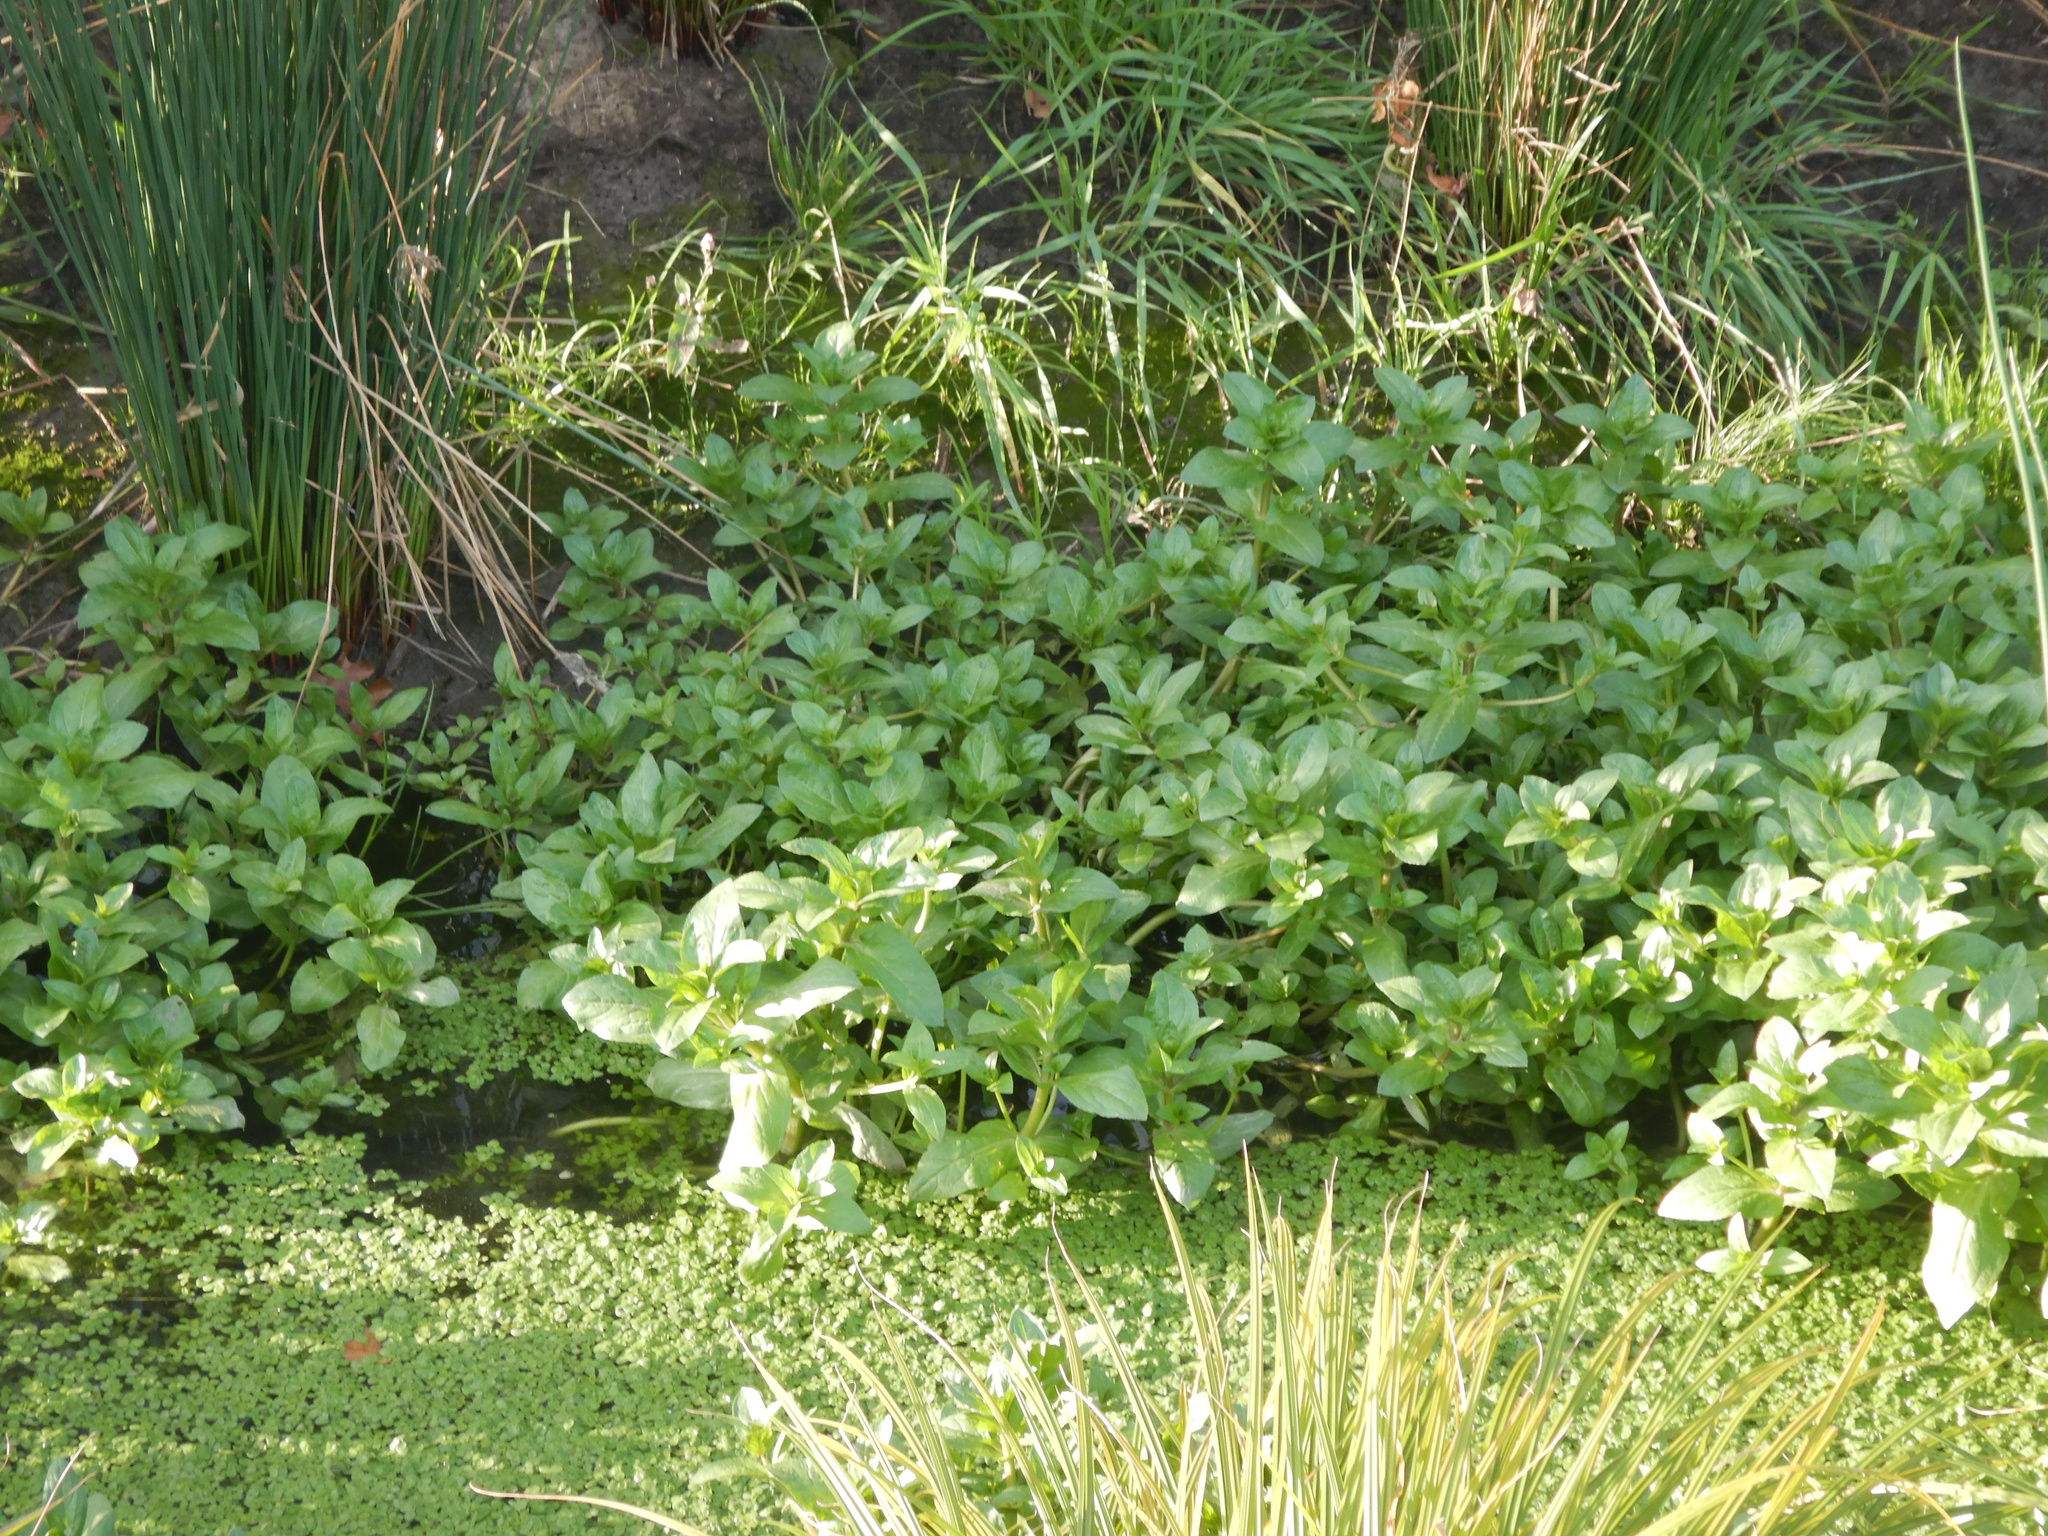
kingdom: Plantae
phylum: Tracheophyta
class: Magnoliopsida
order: Lamiales
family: Plantaginaceae
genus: Veronica
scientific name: Veronica anagallis-aquatica
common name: Water speedwell
